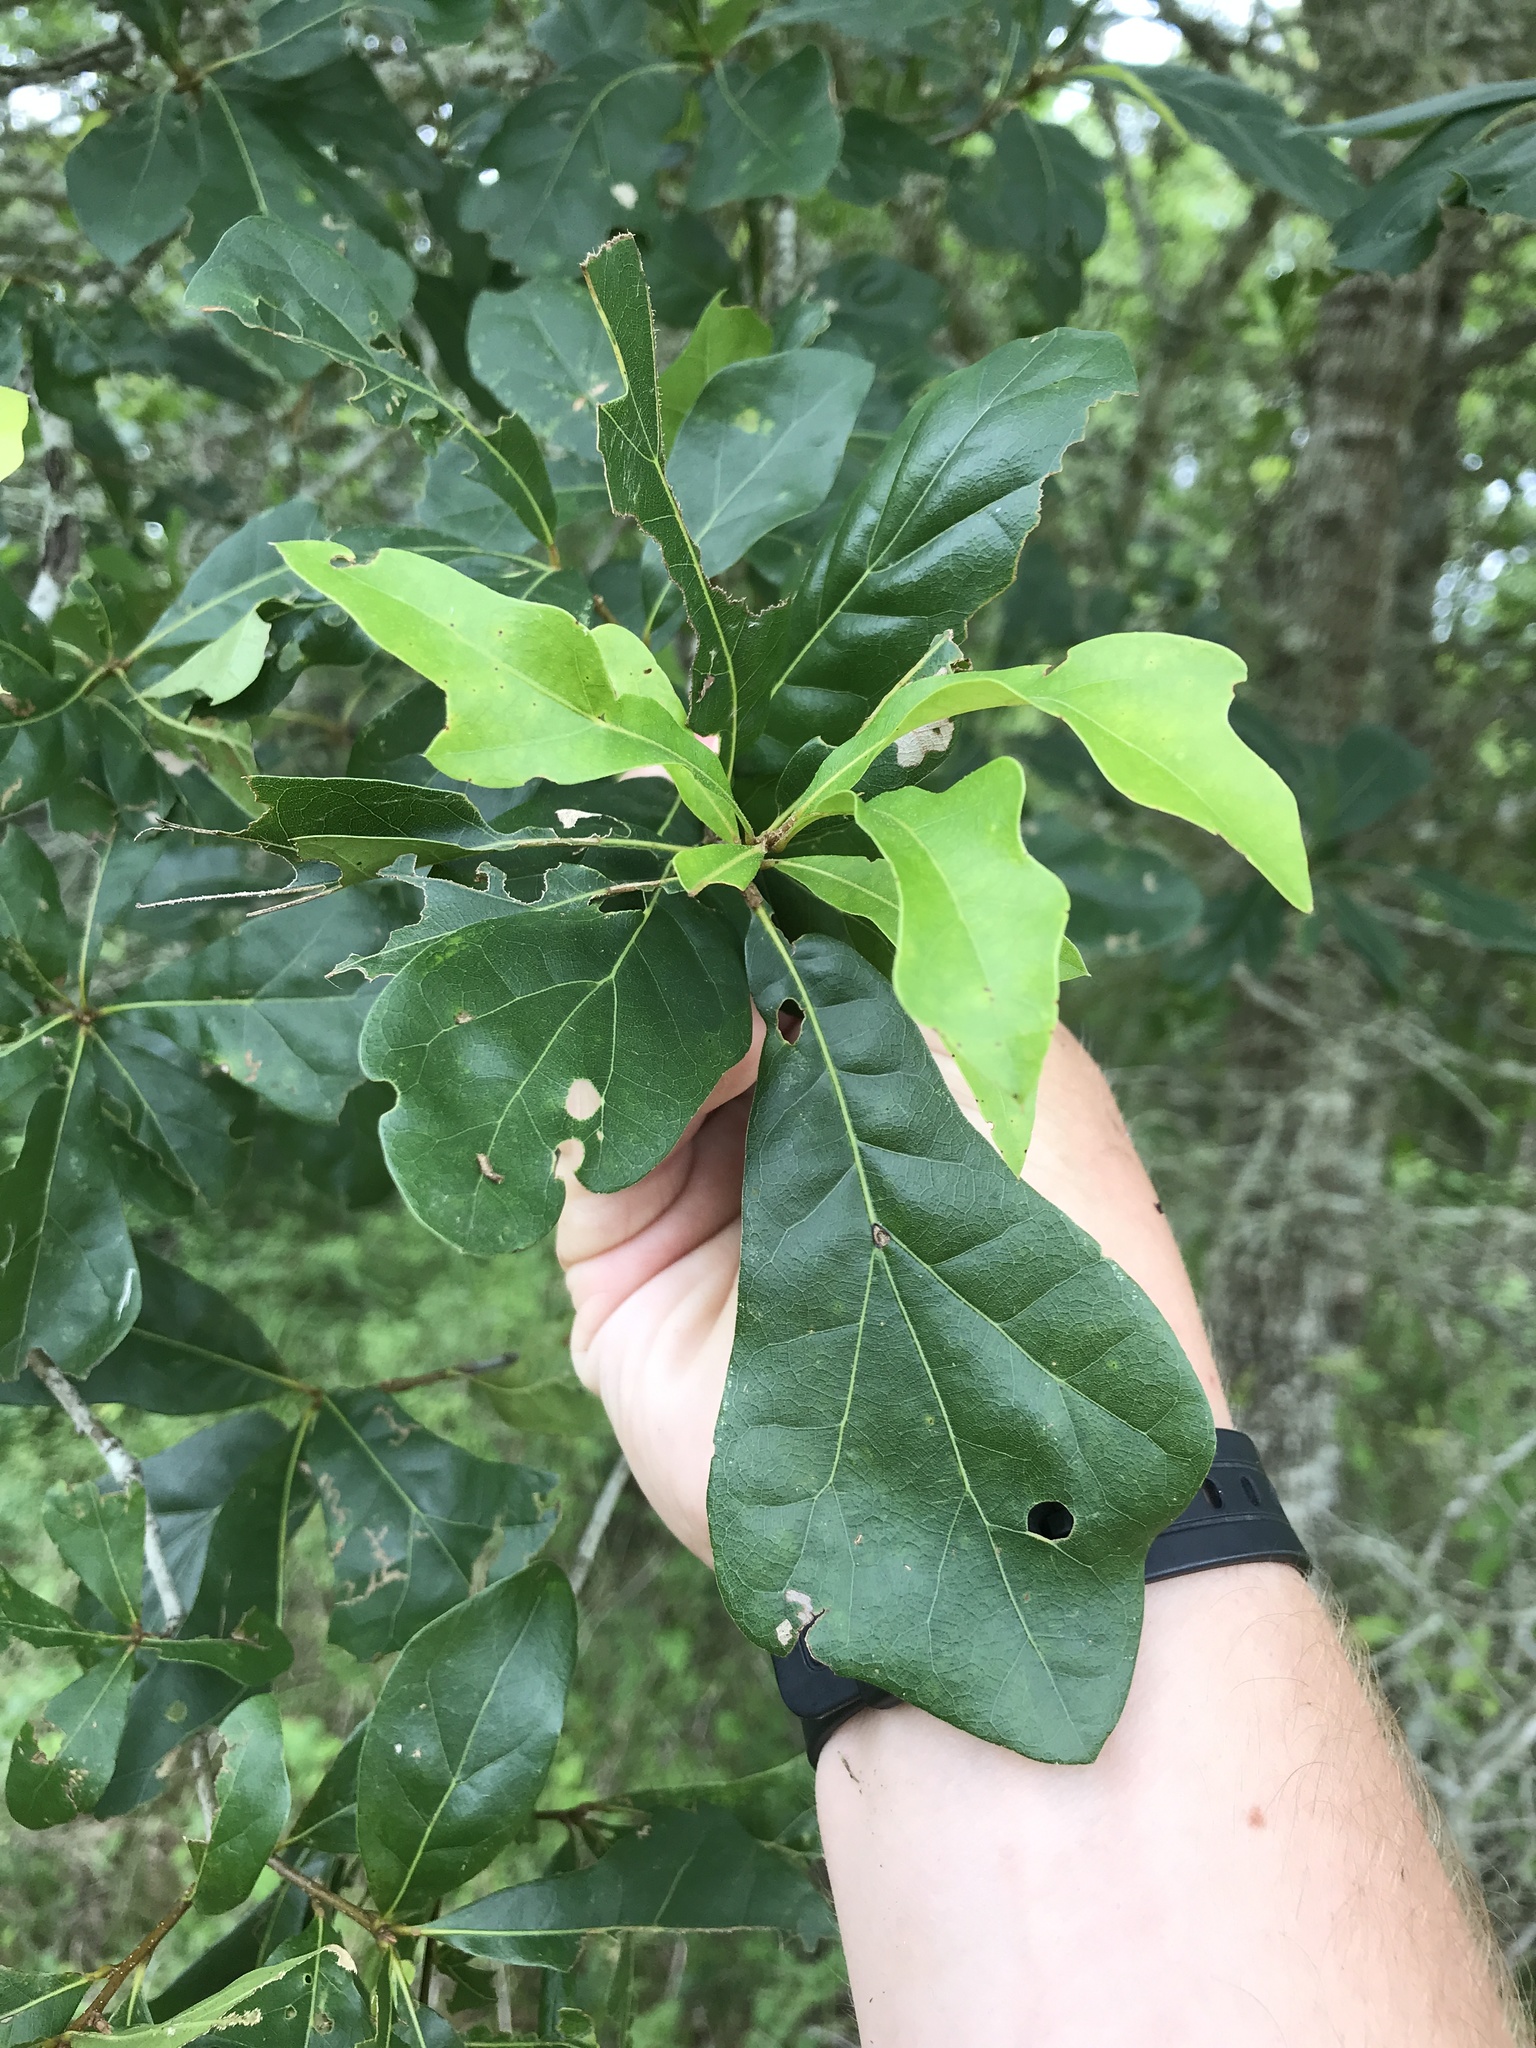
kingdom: Plantae
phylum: Tracheophyta
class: Magnoliopsida
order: Fagales
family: Fagaceae
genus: Quercus
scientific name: Quercus nigra
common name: Water oak
